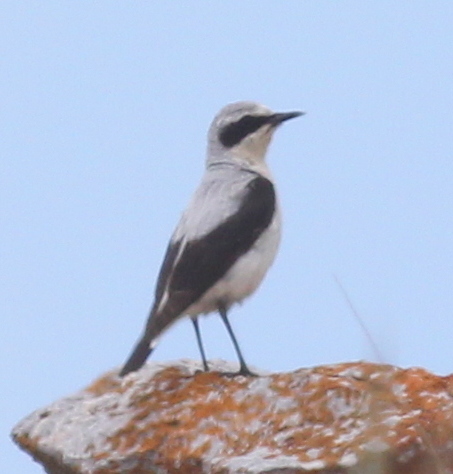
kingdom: Animalia
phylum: Chordata
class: Aves
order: Passeriformes
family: Muscicapidae
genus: Oenanthe
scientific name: Oenanthe oenanthe
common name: Northern wheatear
